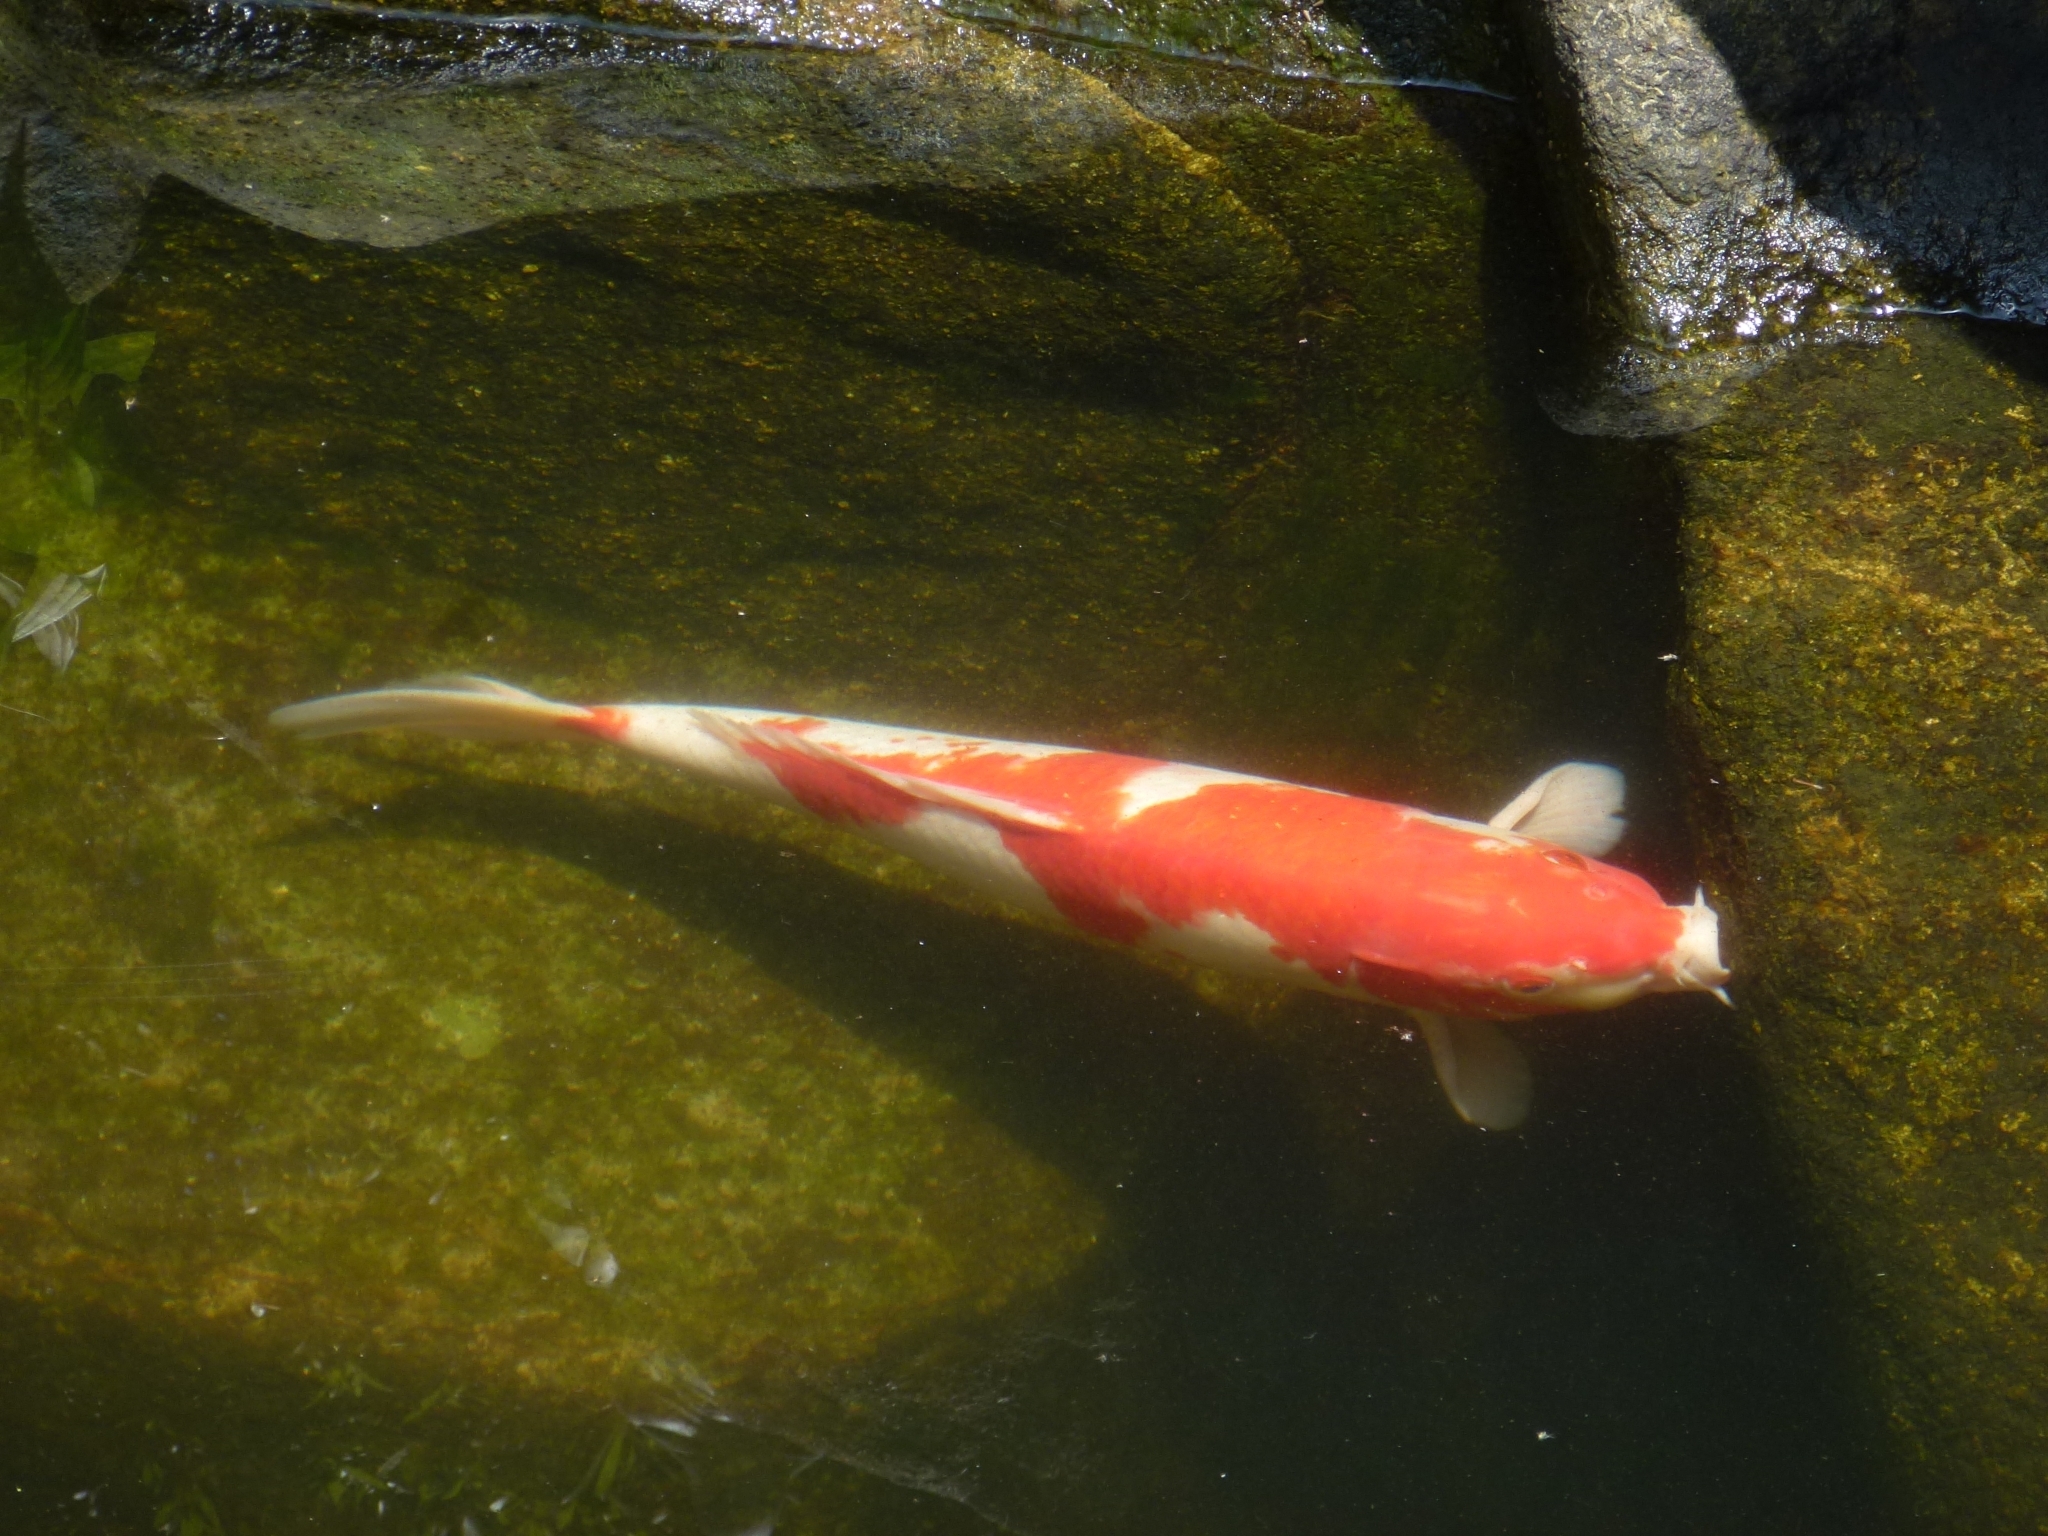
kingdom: Animalia
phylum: Chordata
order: Cypriniformes
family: Cyprinidae
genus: Cyprinus
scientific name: Cyprinus rubrofuscus
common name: Koi
